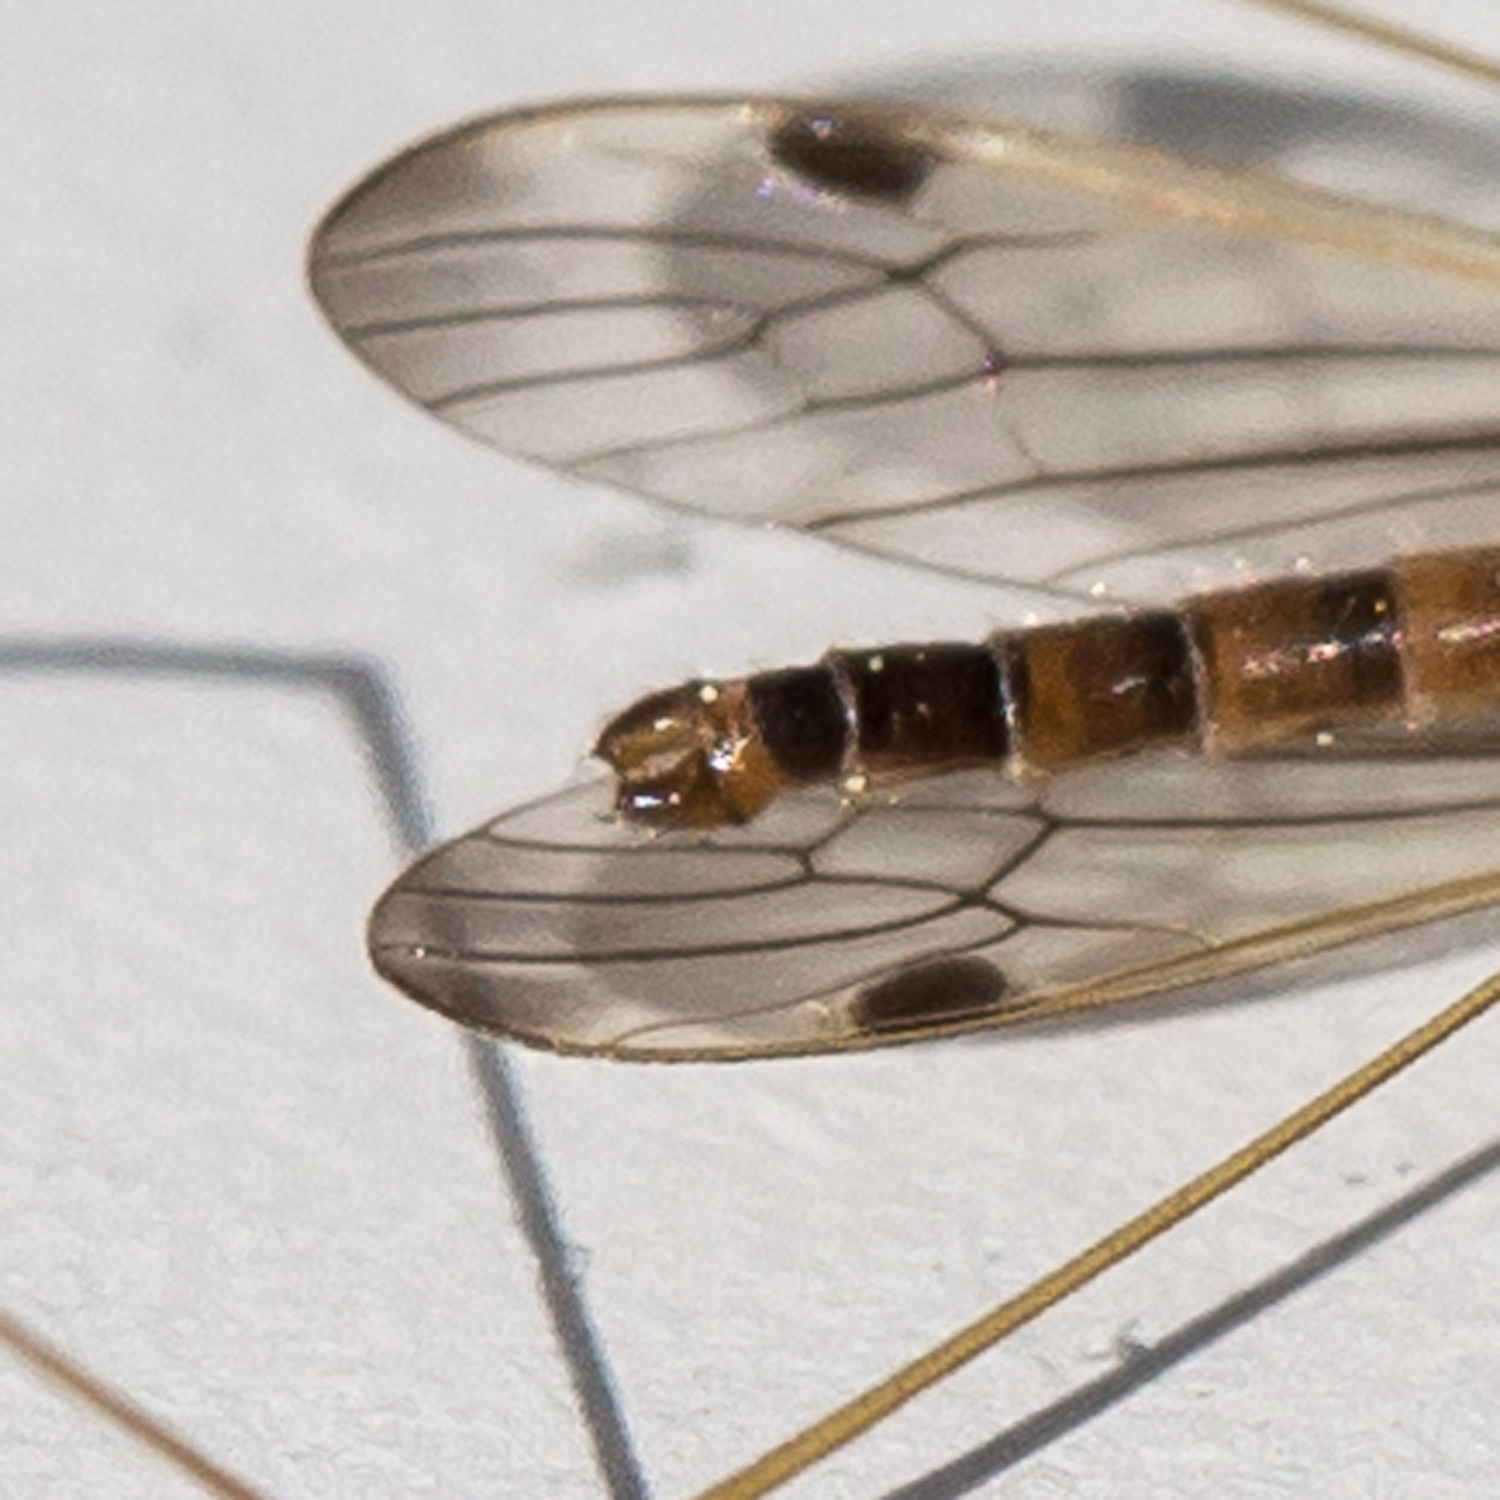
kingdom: Animalia
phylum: Arthropoda
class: Insecta
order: Diptera
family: Limoniidae
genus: Helius
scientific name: Helius flavipes
